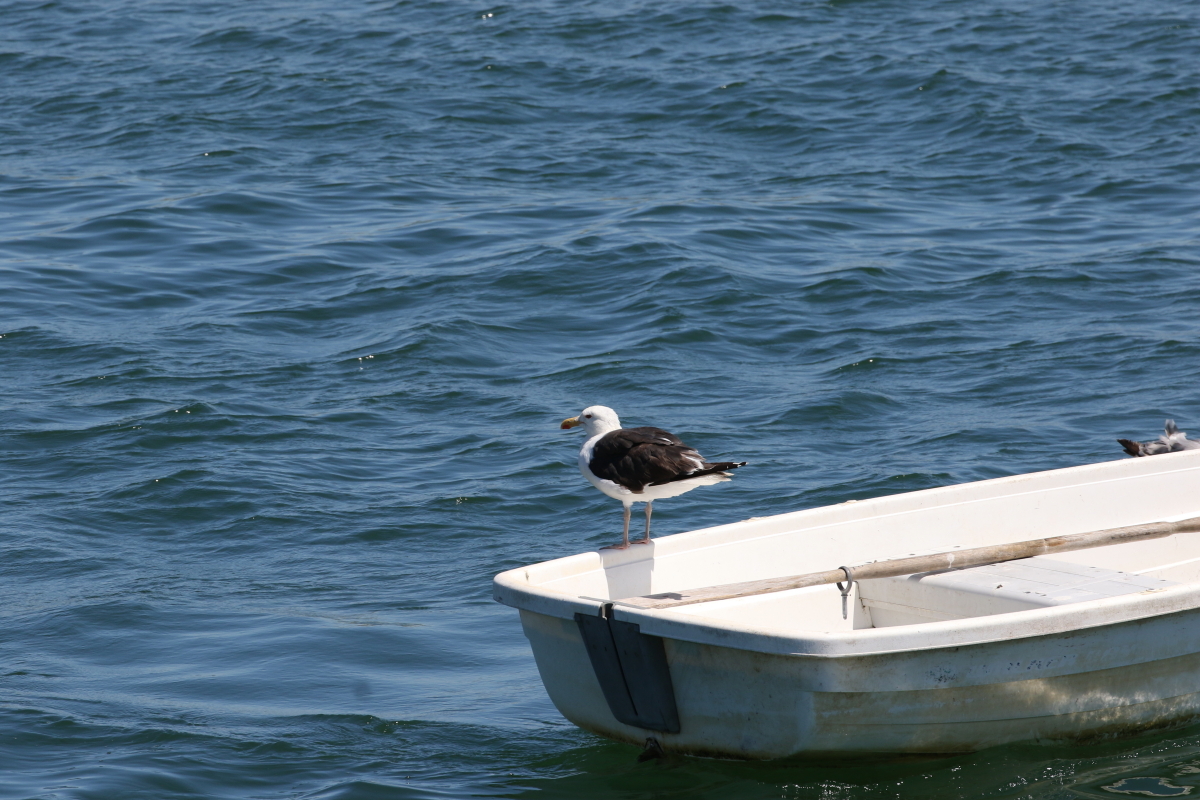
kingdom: Animalia
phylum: Chordata
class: Aves
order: Charadriiformes
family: Laridae
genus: Larus
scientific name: Larus marinus
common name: Great black-backed gull
